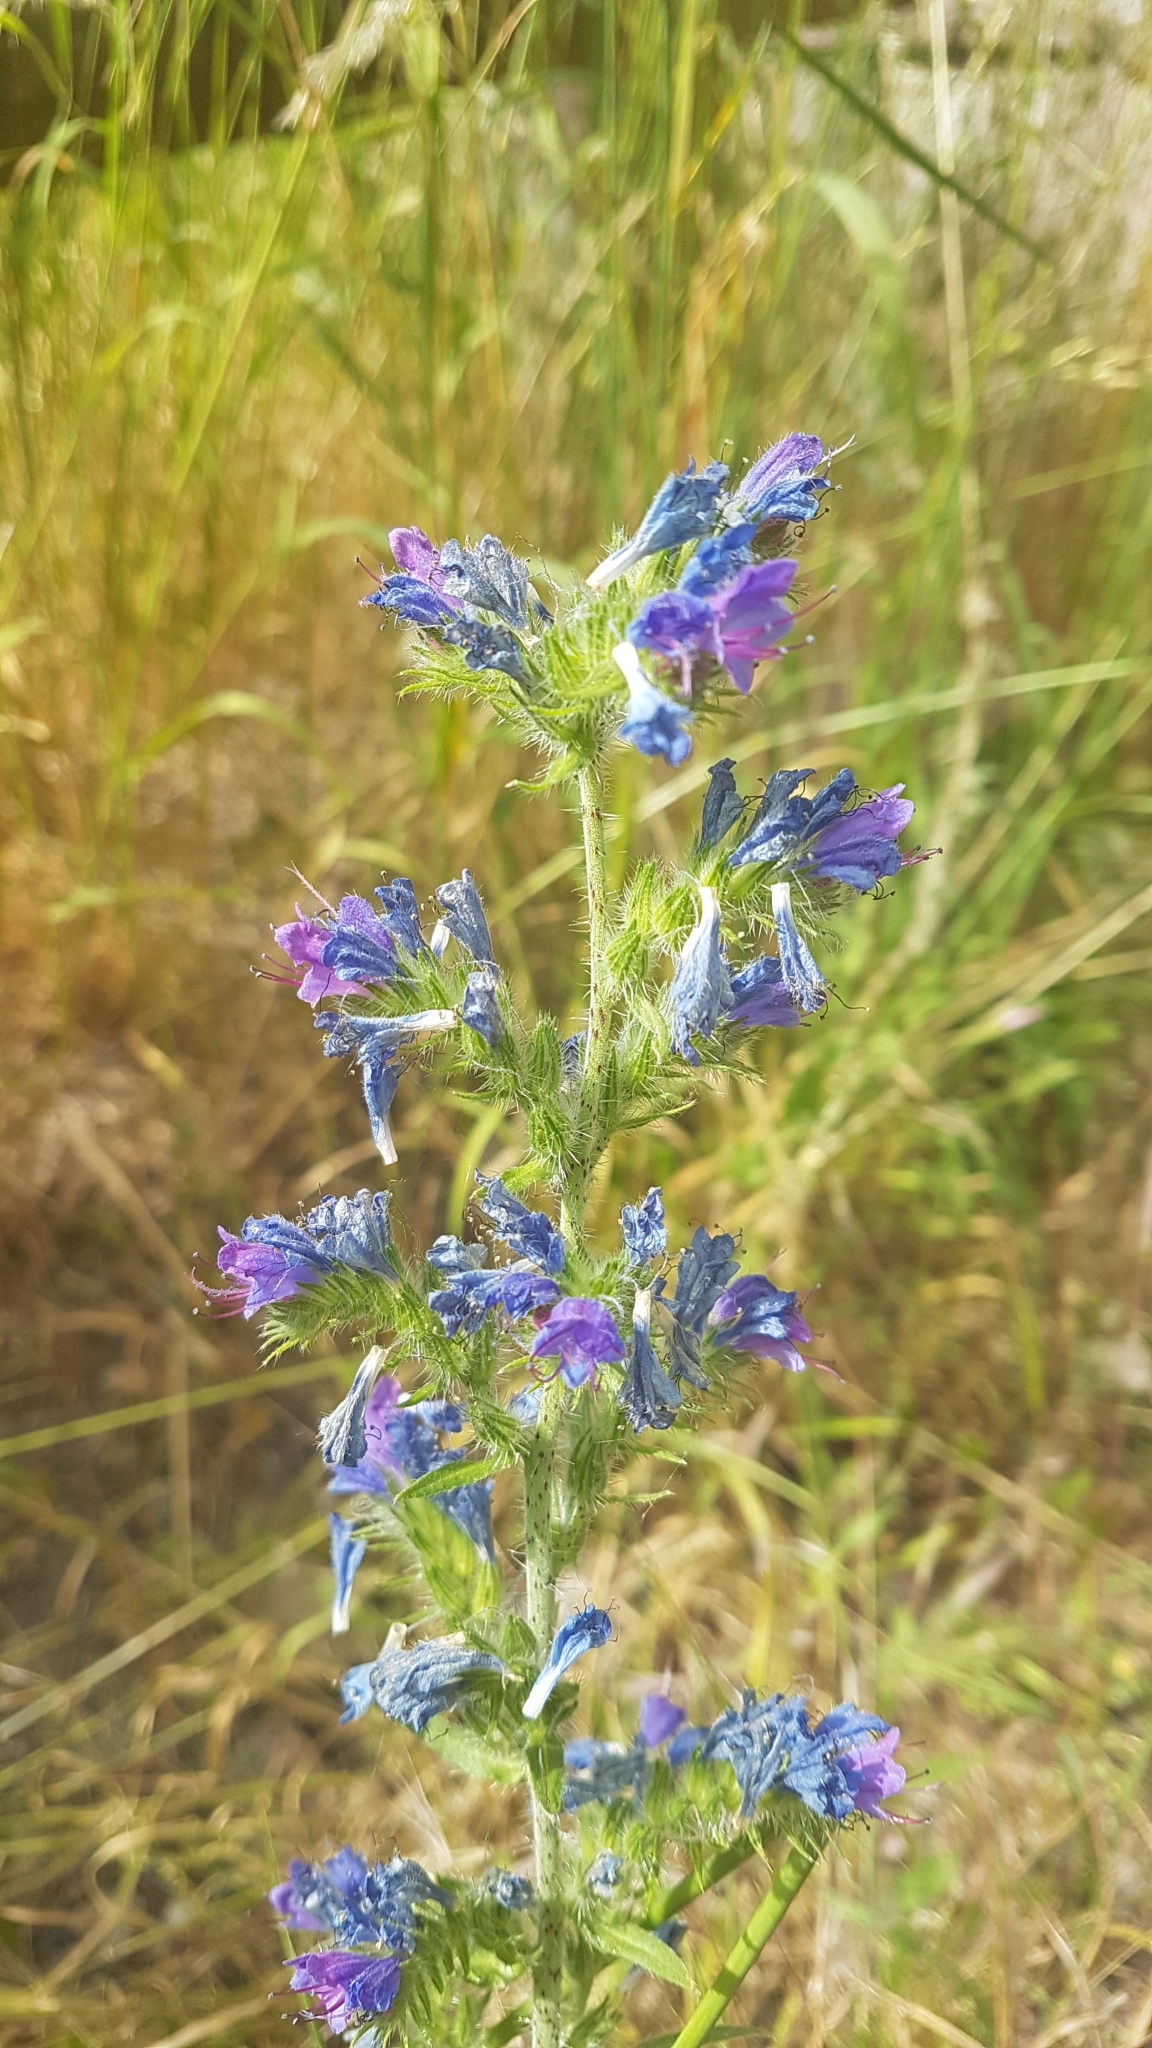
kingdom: Plantae
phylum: Tracheophyta
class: Magnoliopsida
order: Boraginales
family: Boraginaceae
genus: Echium
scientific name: Echium vulgare
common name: Common viper's bugloss
